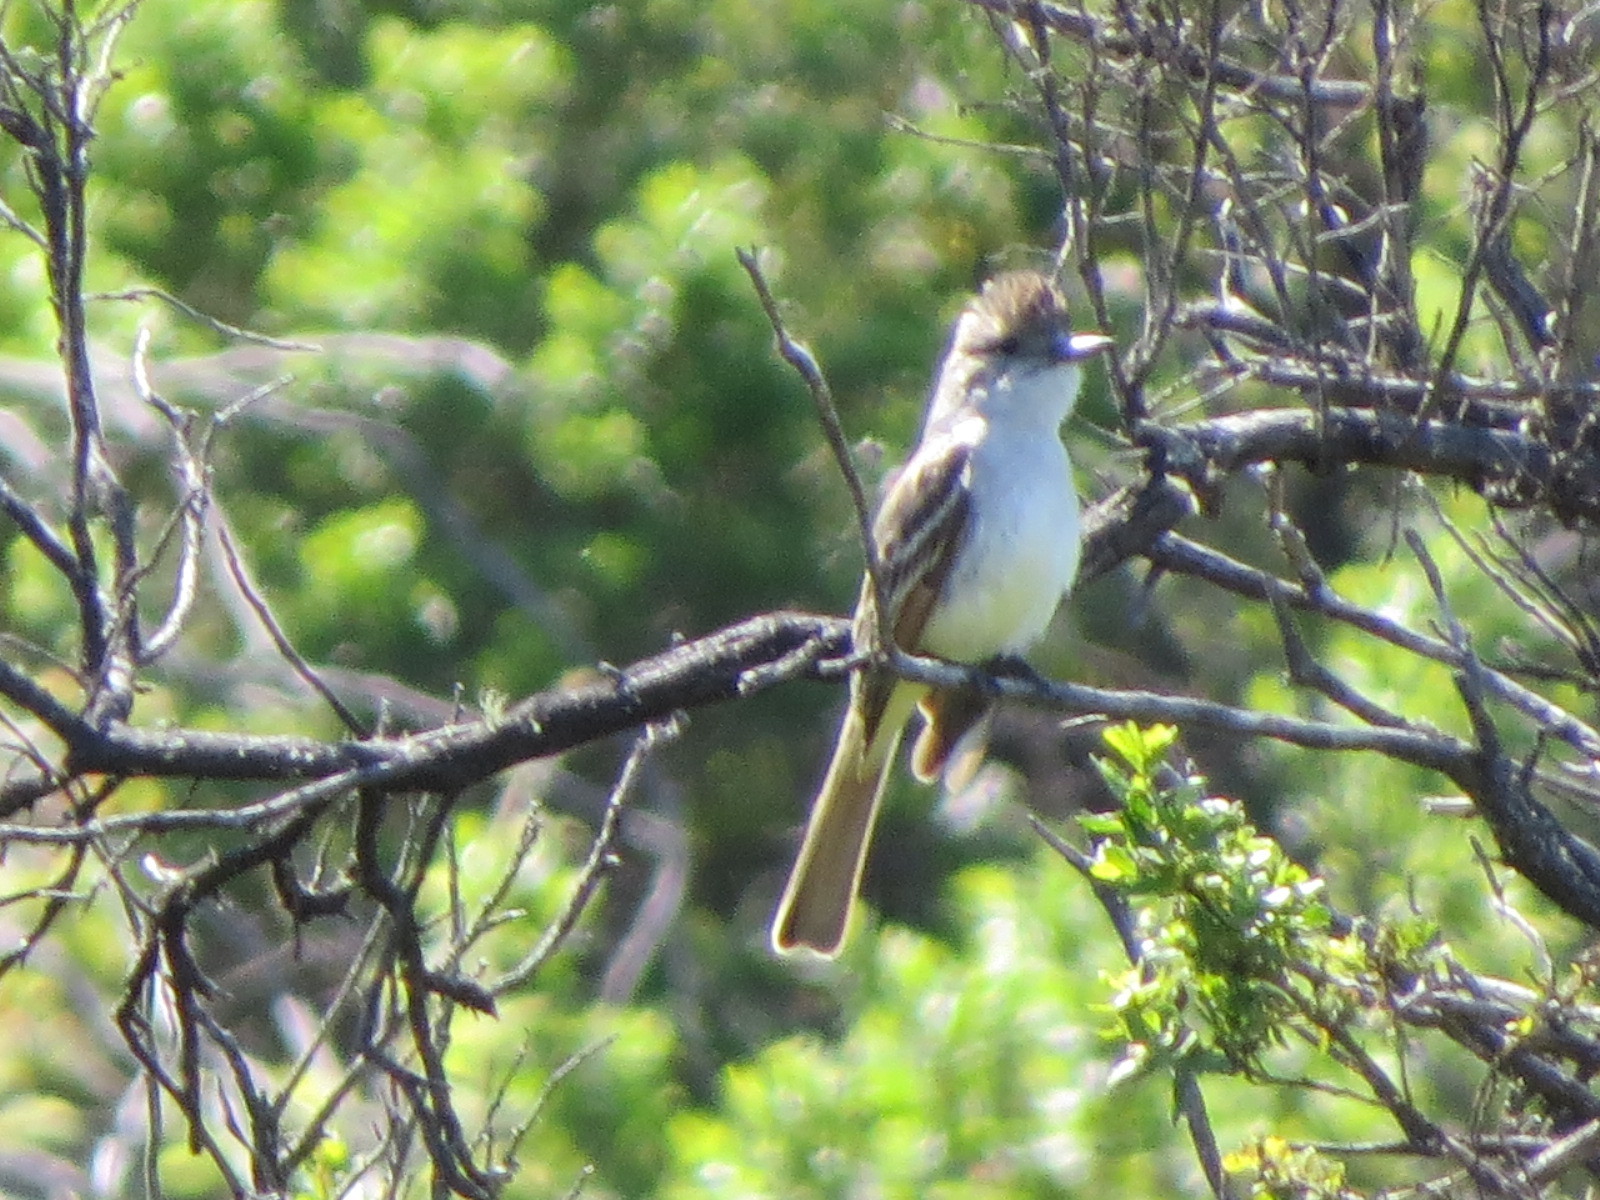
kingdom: Animalia
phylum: Chordata
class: Aves
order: Passeriformes
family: Tyrannidae
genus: Myiarchus
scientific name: Myiarchus cinerascens
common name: Ash-throated flycatcher
